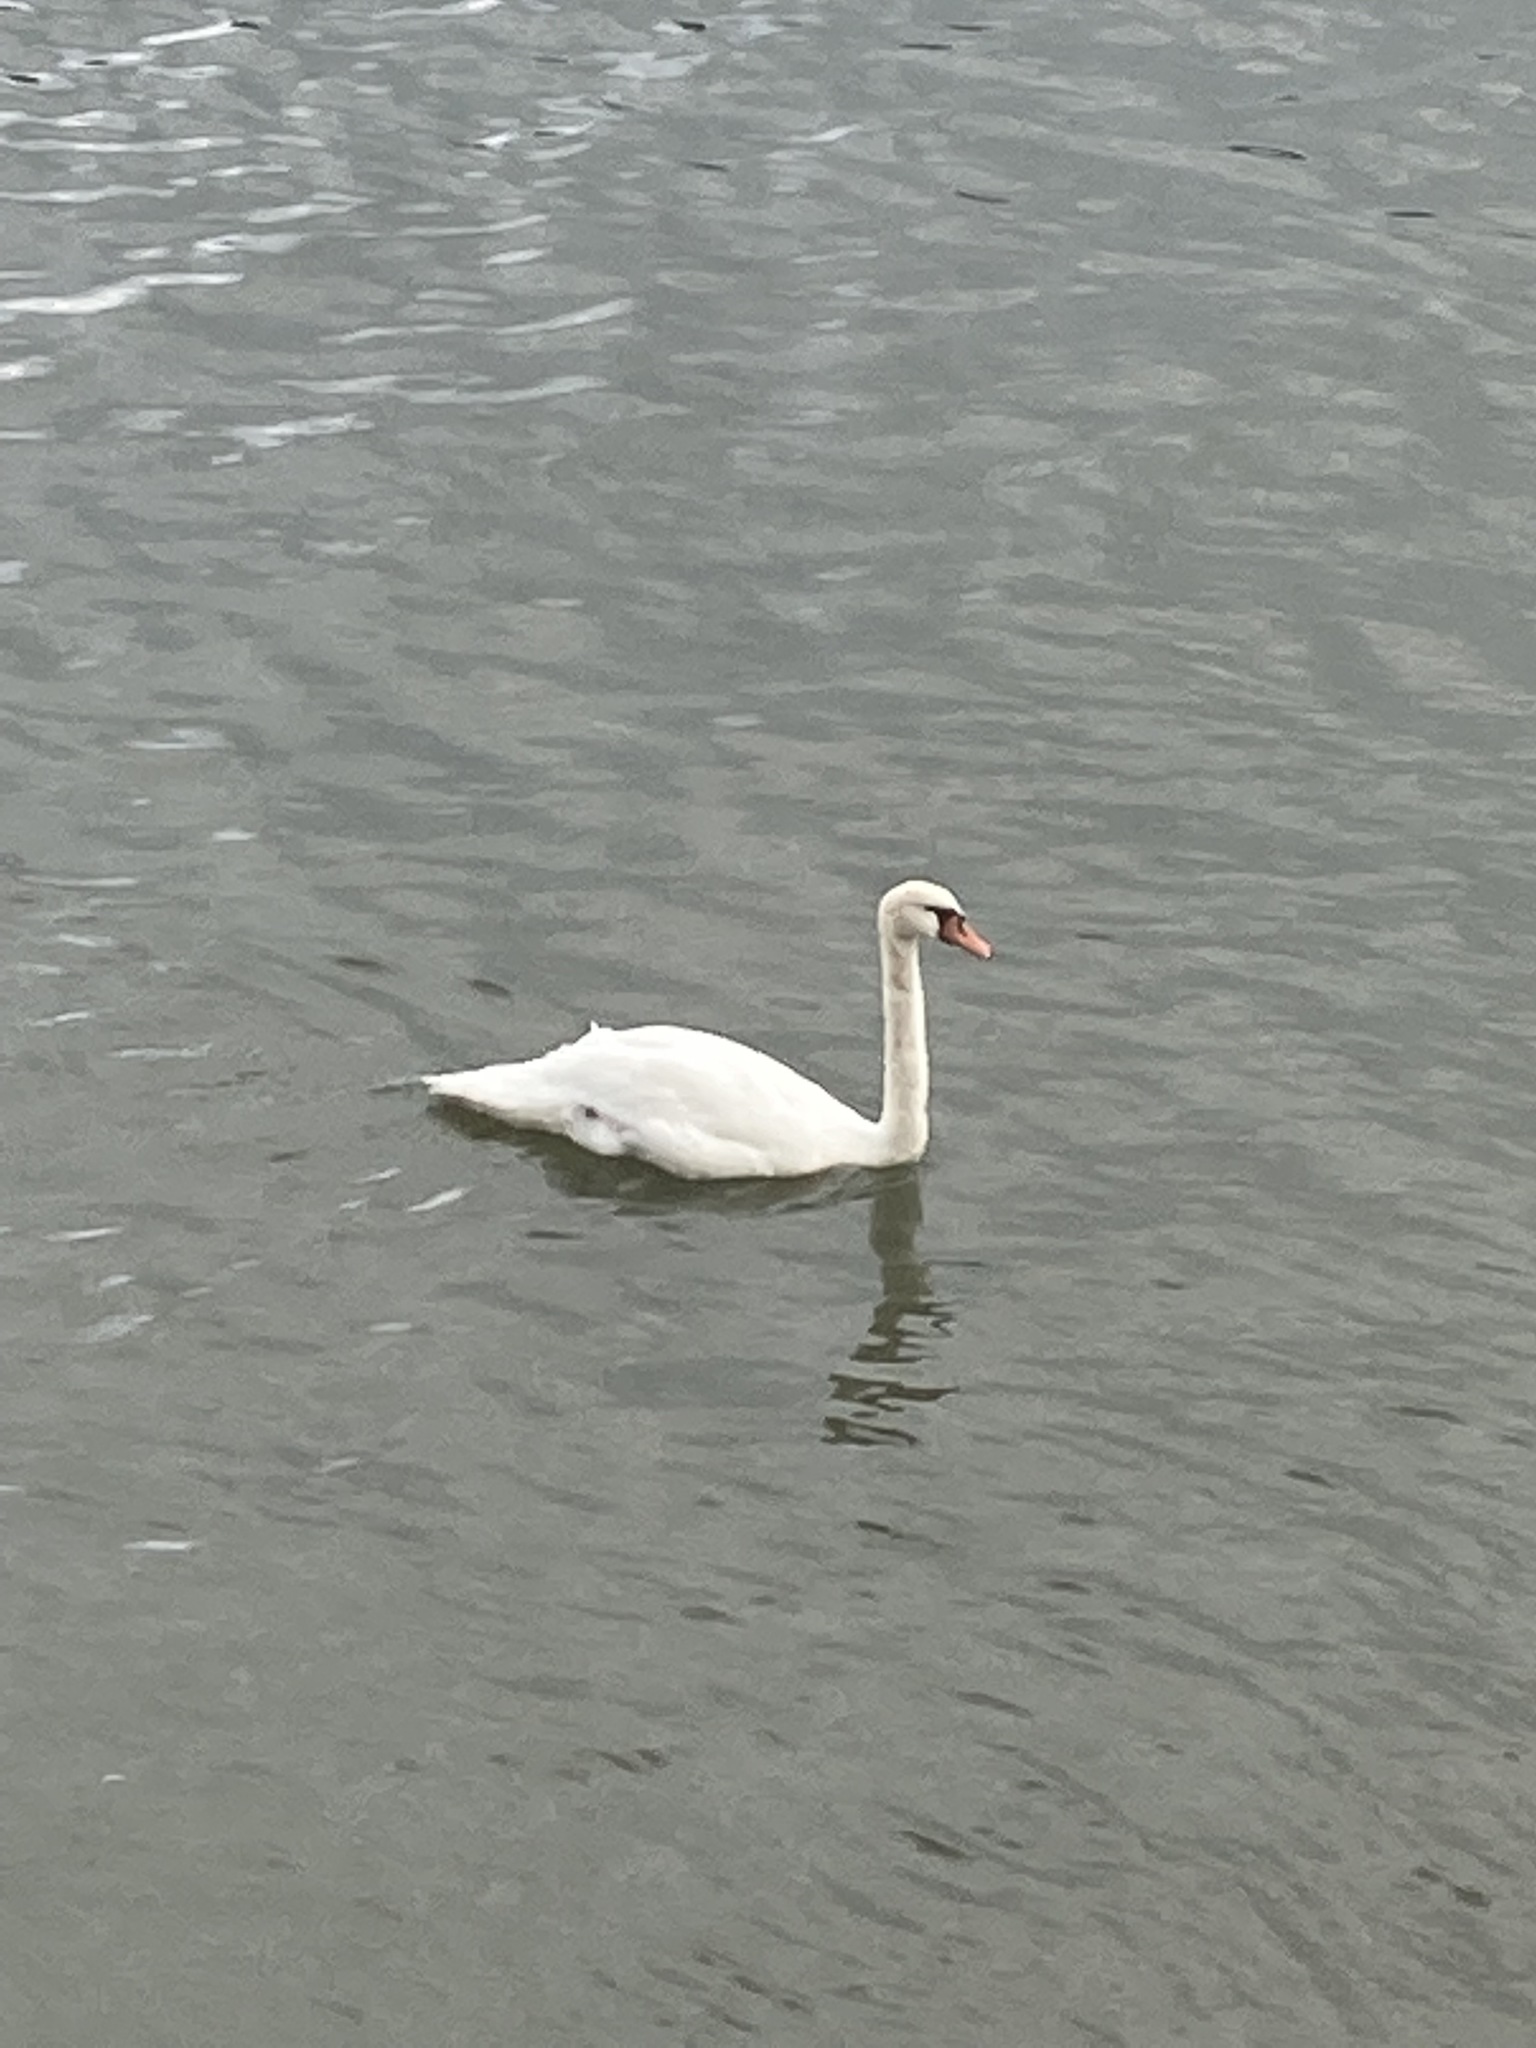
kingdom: Animalia
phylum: Chordata
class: Aves
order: Anseriformes
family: Anatidae
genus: Cygnus
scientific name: Cygnus olor
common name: Mute swan
